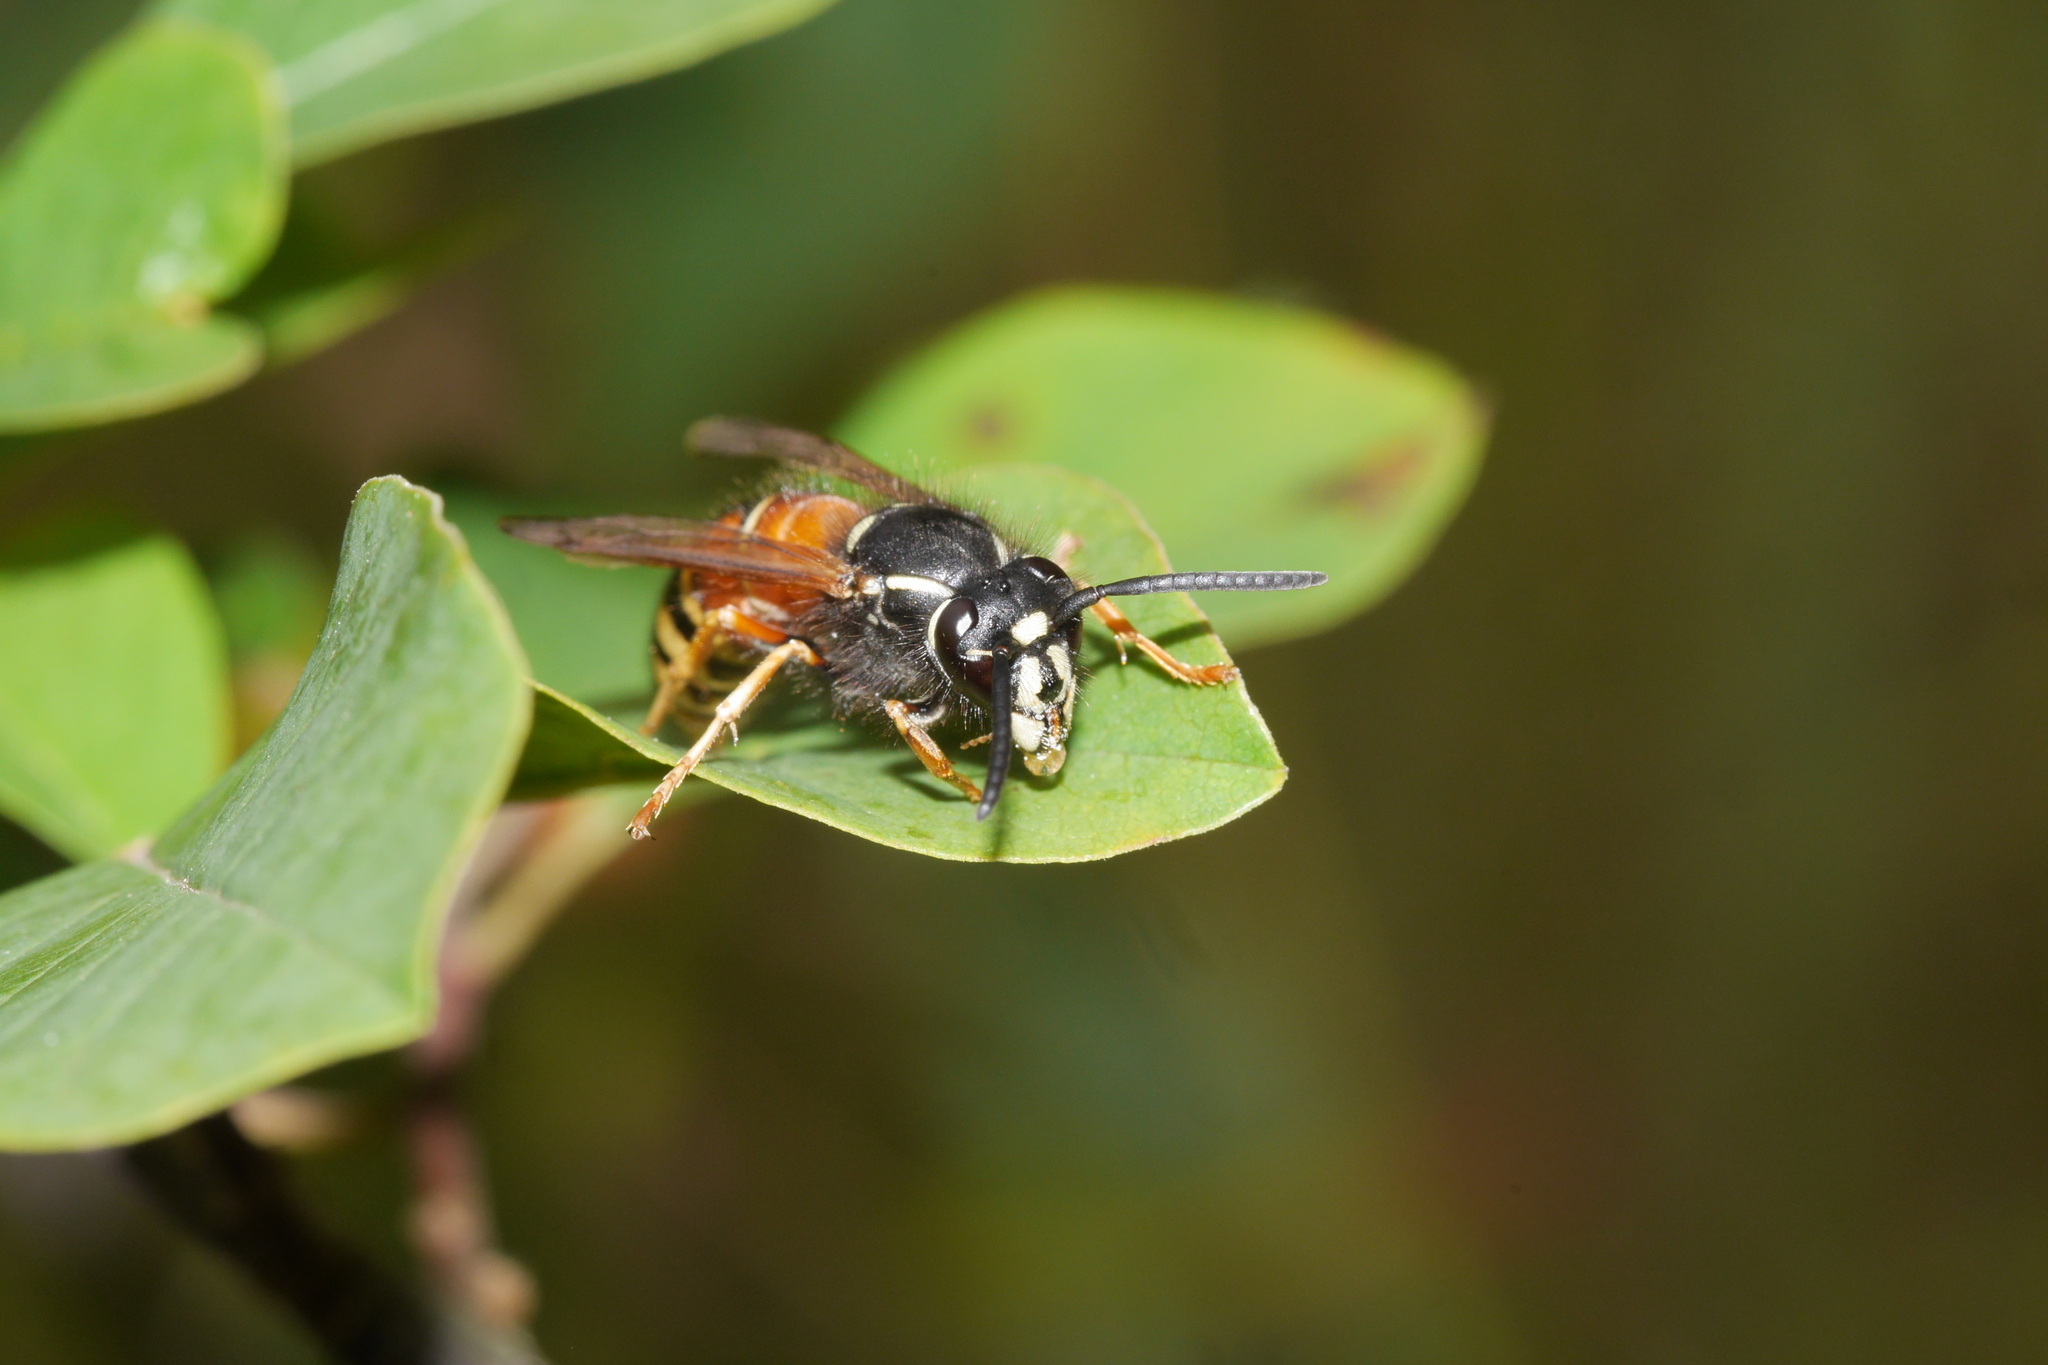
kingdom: Animalia
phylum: Arthropoda
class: Insecta
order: Hymenoptera
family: Vespidae
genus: Vespula
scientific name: Vespula rufa
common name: Red wasp
